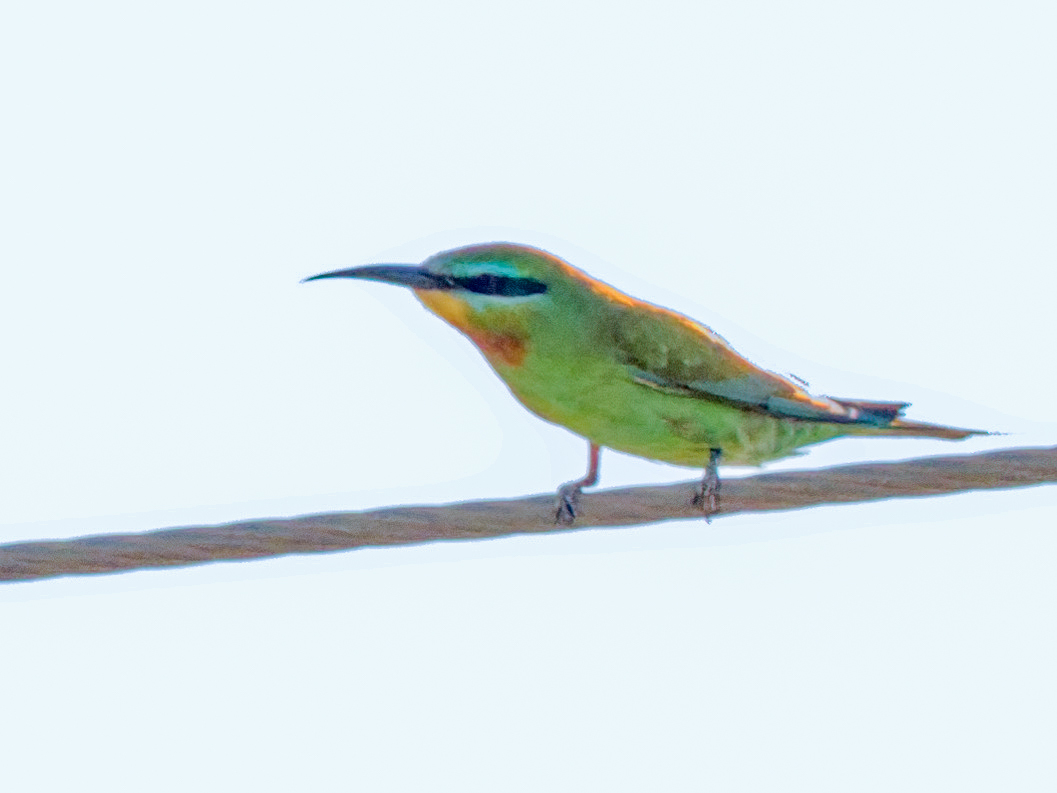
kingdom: Animalia
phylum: Chordata
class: Aves
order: Coraciiformes
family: Meropidae
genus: Merops
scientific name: Merops persicus
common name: Blue-cheeked bee-eater
